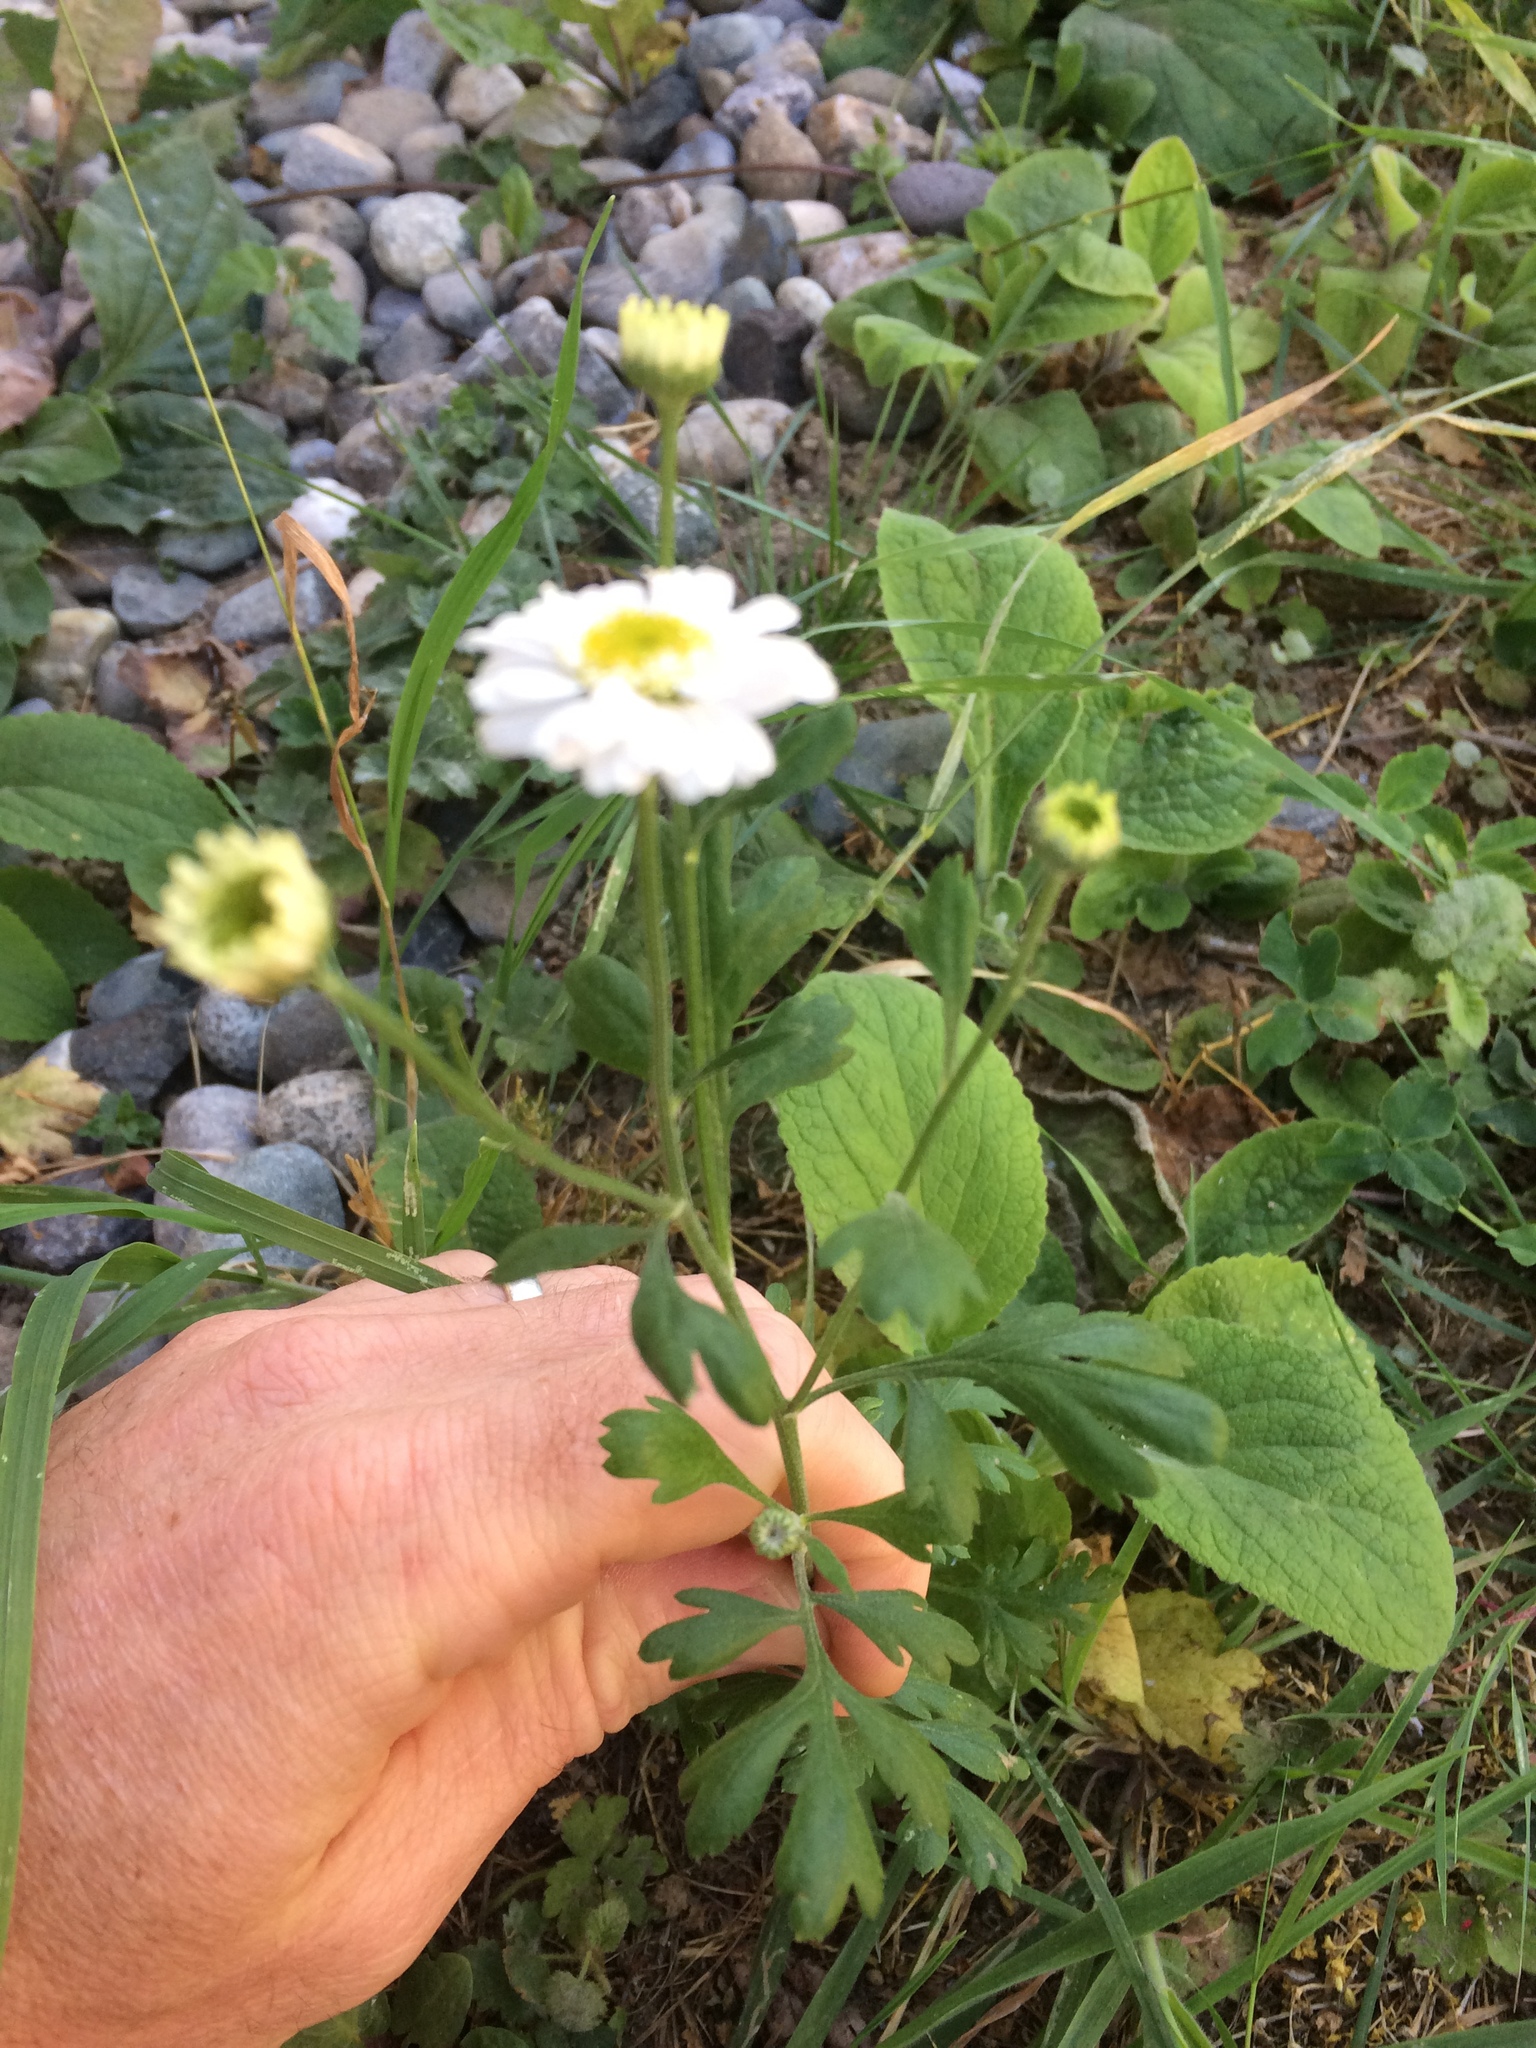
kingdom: Plantae
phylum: Tracheophyta
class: Magnoliopsida
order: Asterales
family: Asteraceae
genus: Tanacetum
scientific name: Tanacetum parthenium
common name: Feverfew
